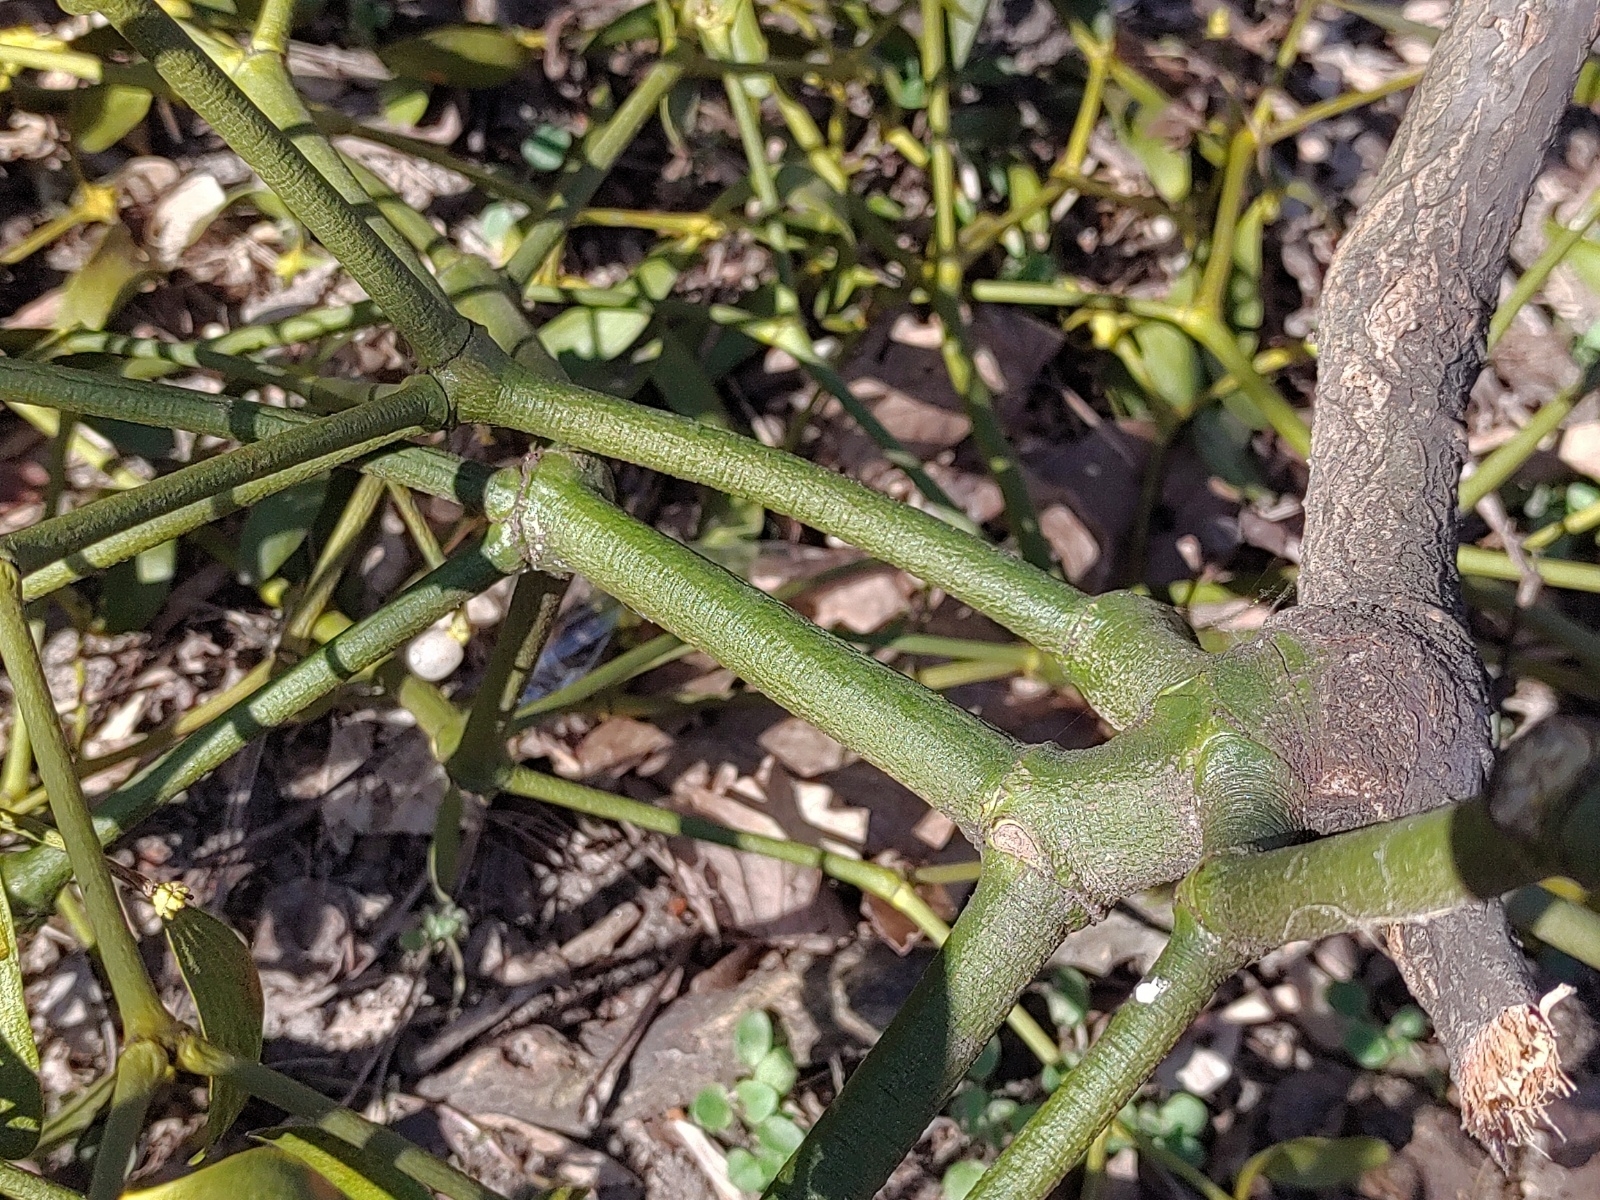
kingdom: Plantae
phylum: Tracheophyta
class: Magnoliopsida
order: Santalales
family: Viscaceae
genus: Viscum
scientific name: Viscum album
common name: Mistletoe
